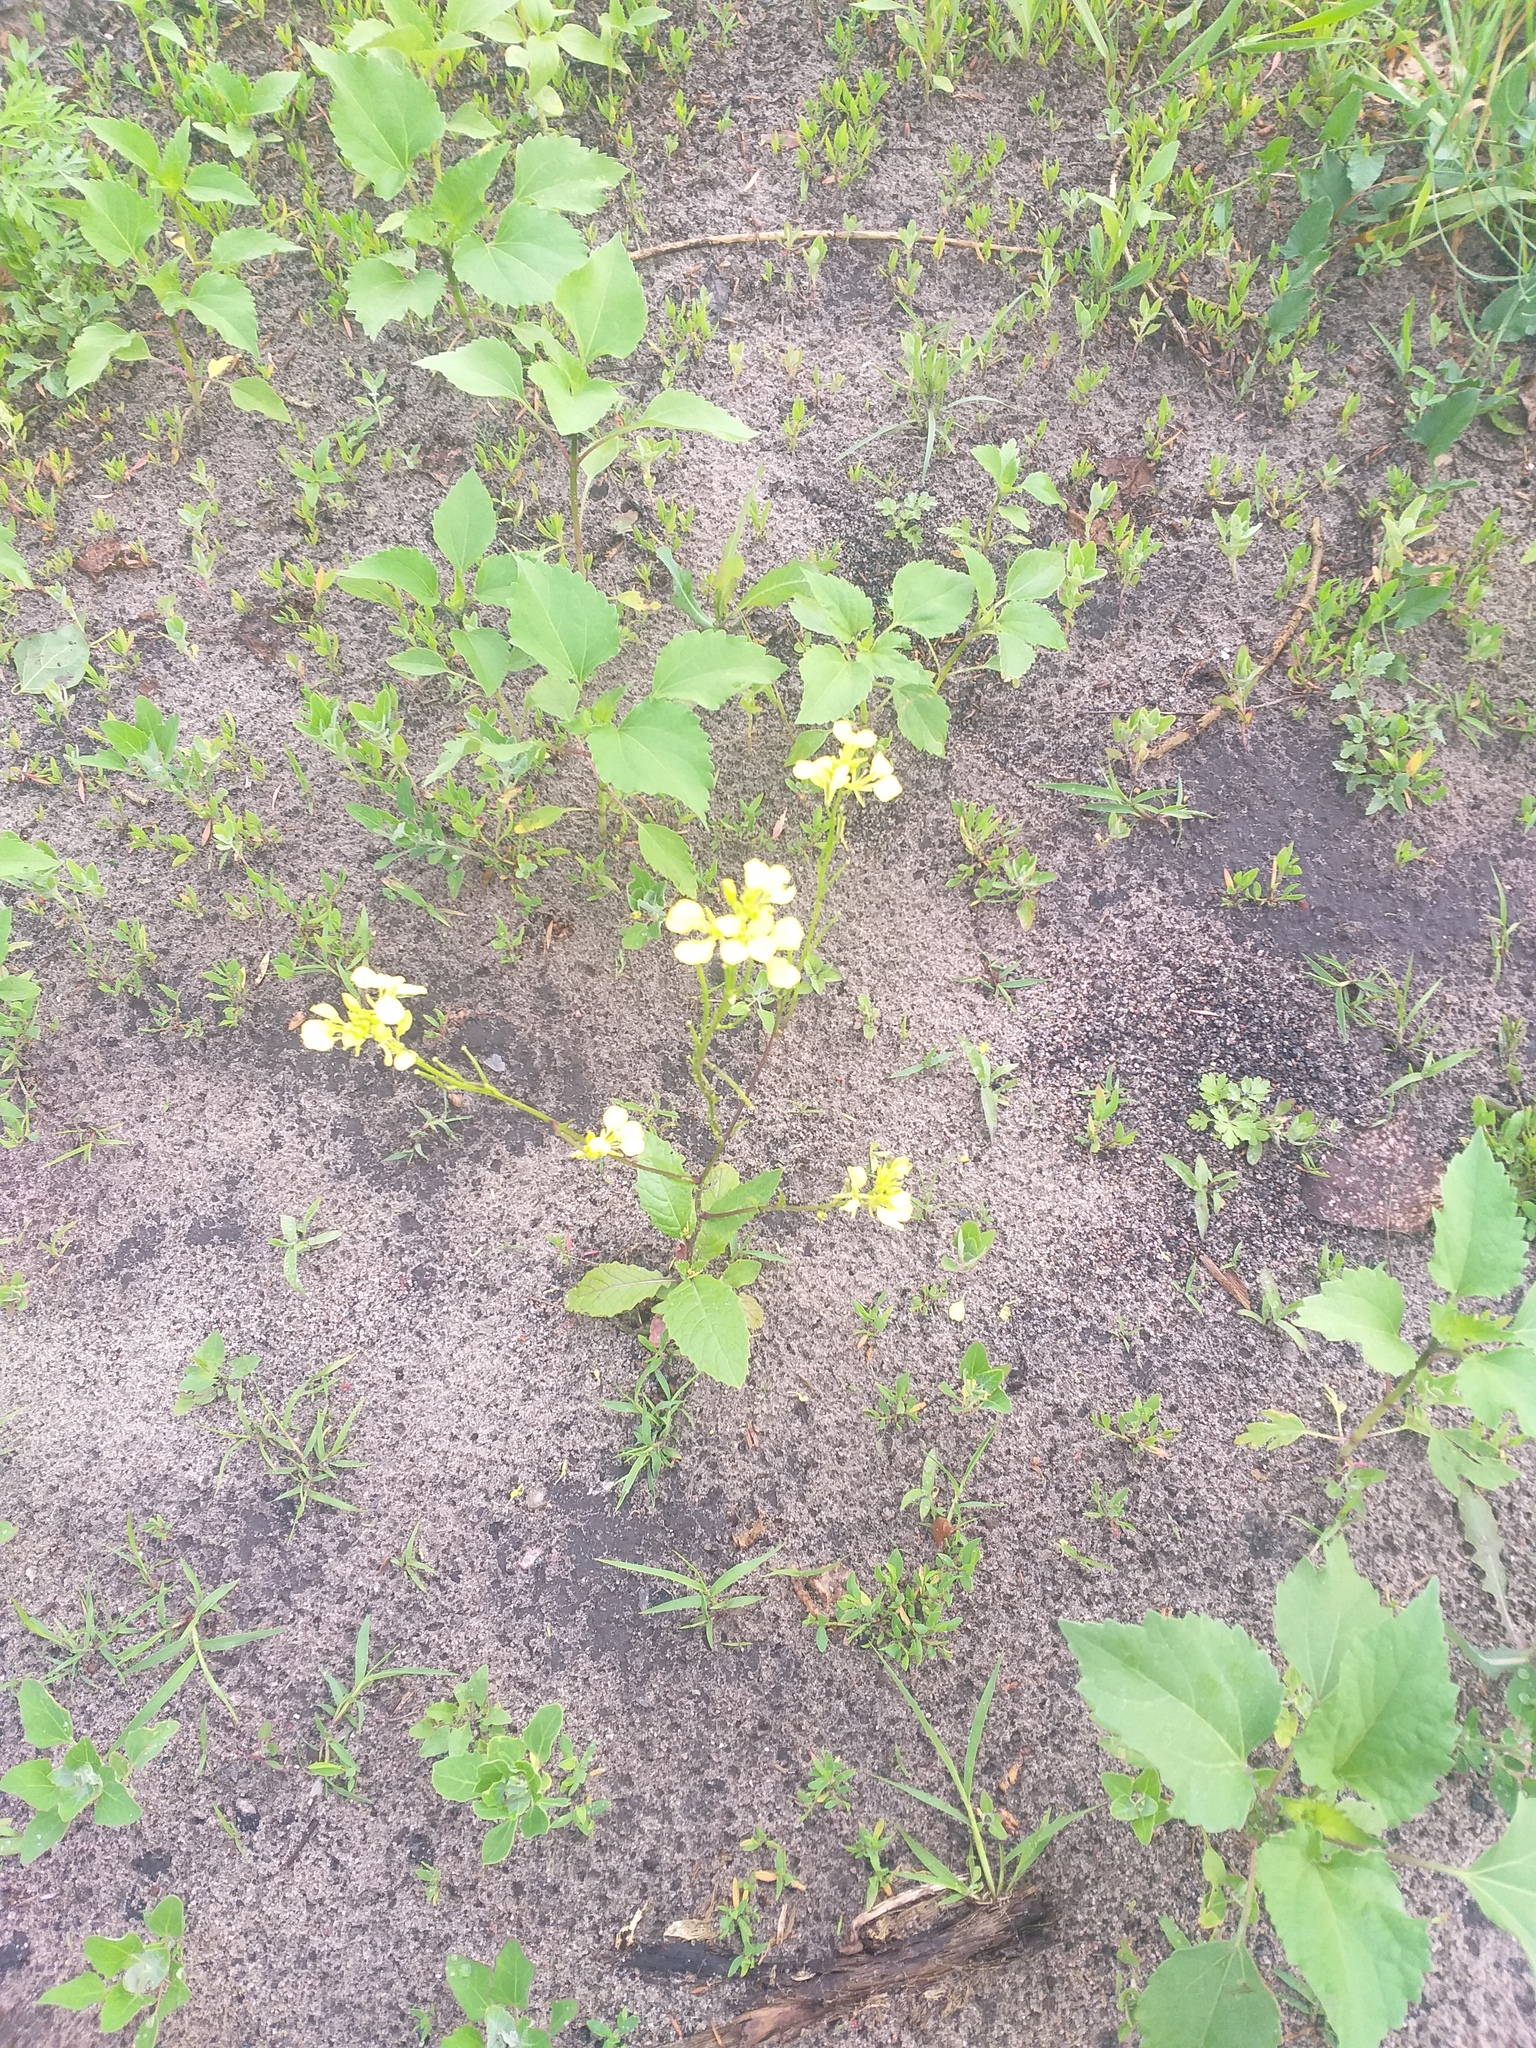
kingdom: Plantae
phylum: Tracheophyta
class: Magnoliopsida
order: Brassicales
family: Brassicaceae
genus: Sinapis
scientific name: Sinapis arvensis
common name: Charlock
